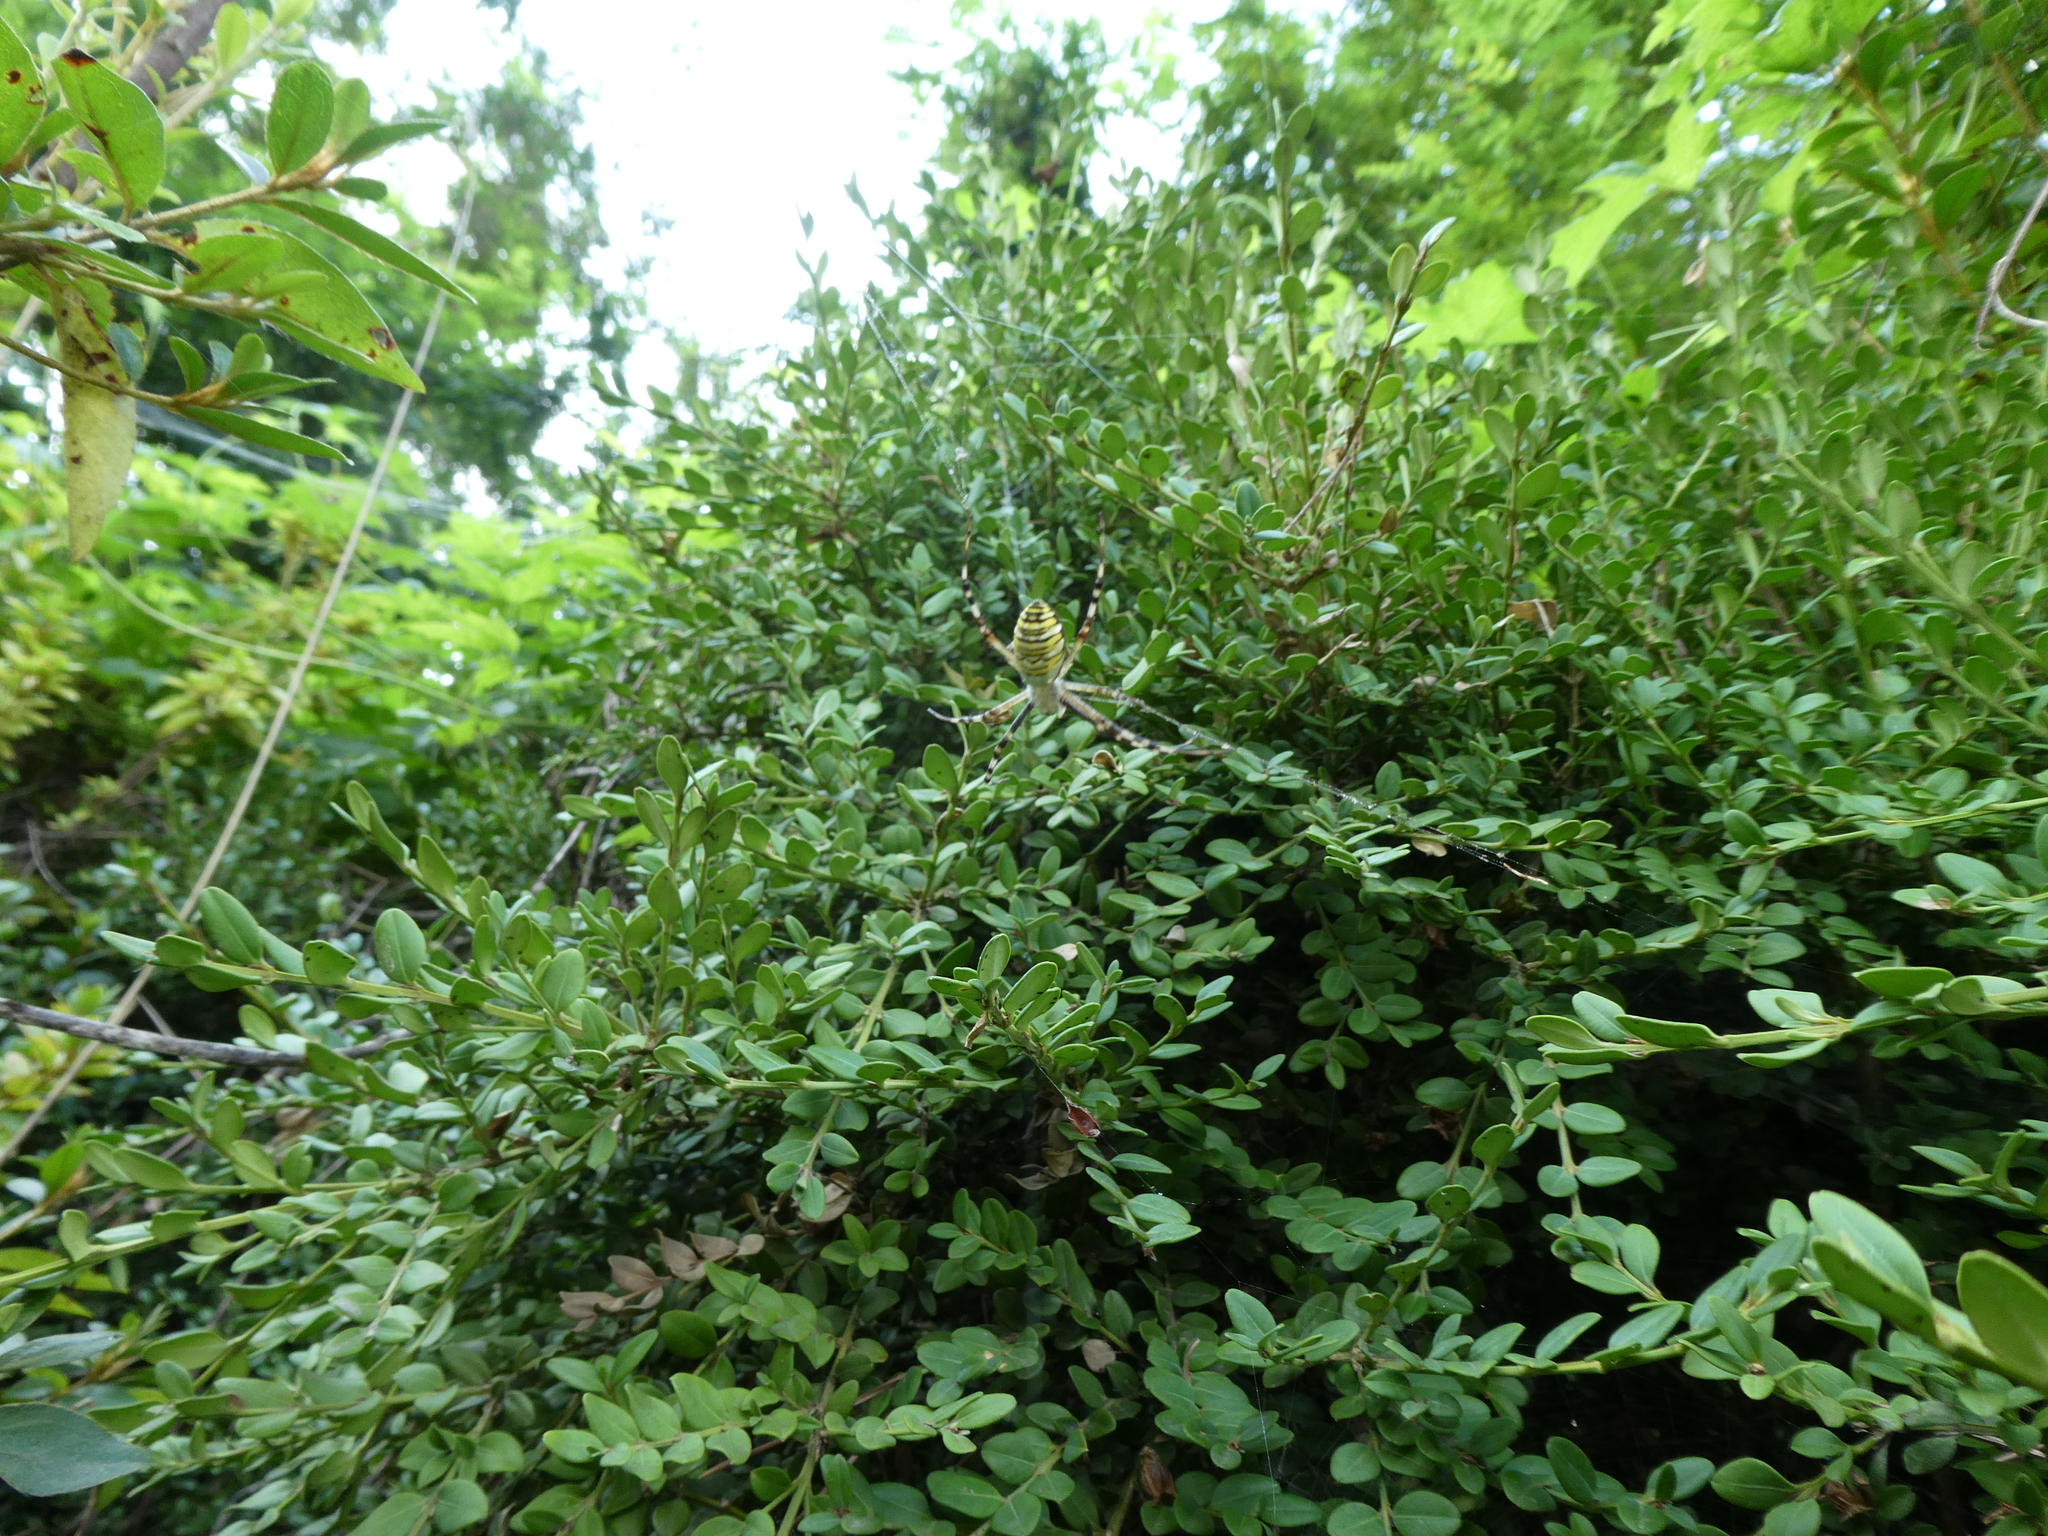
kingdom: Animalia
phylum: Arthropoda
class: Arachnida
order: Araneae
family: Araneidae
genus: Argiope
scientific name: Argiope bruennichi
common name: Wasp spider
